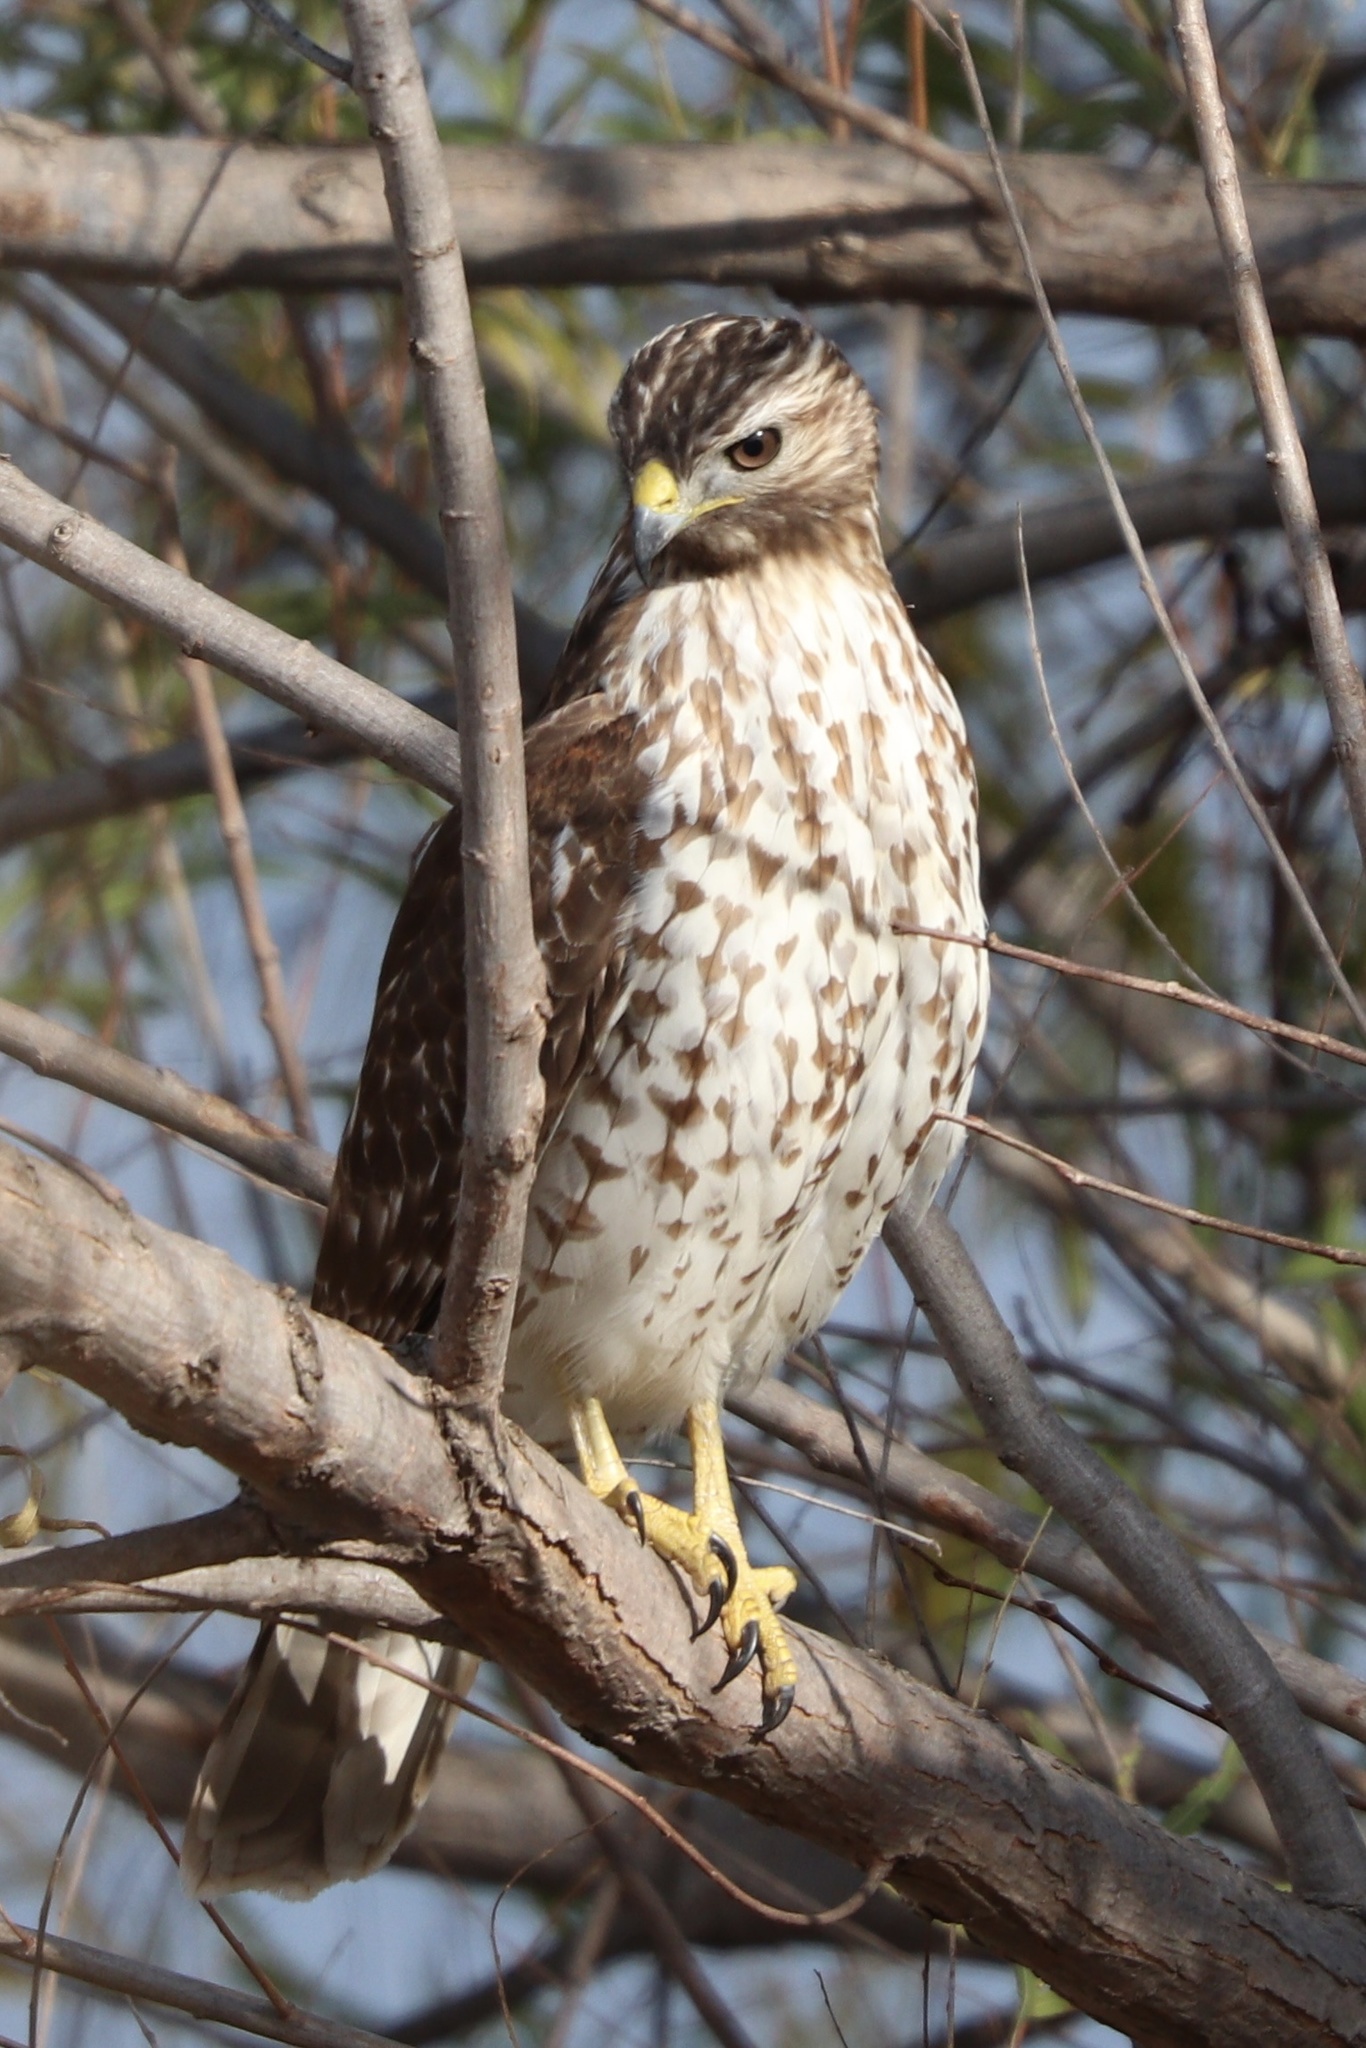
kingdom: Animalia
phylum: Chordata
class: Aves
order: Accipitriformes
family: Accipitridae
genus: Buteo
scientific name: Buteo lineatus
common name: Red-shouldered hawk
